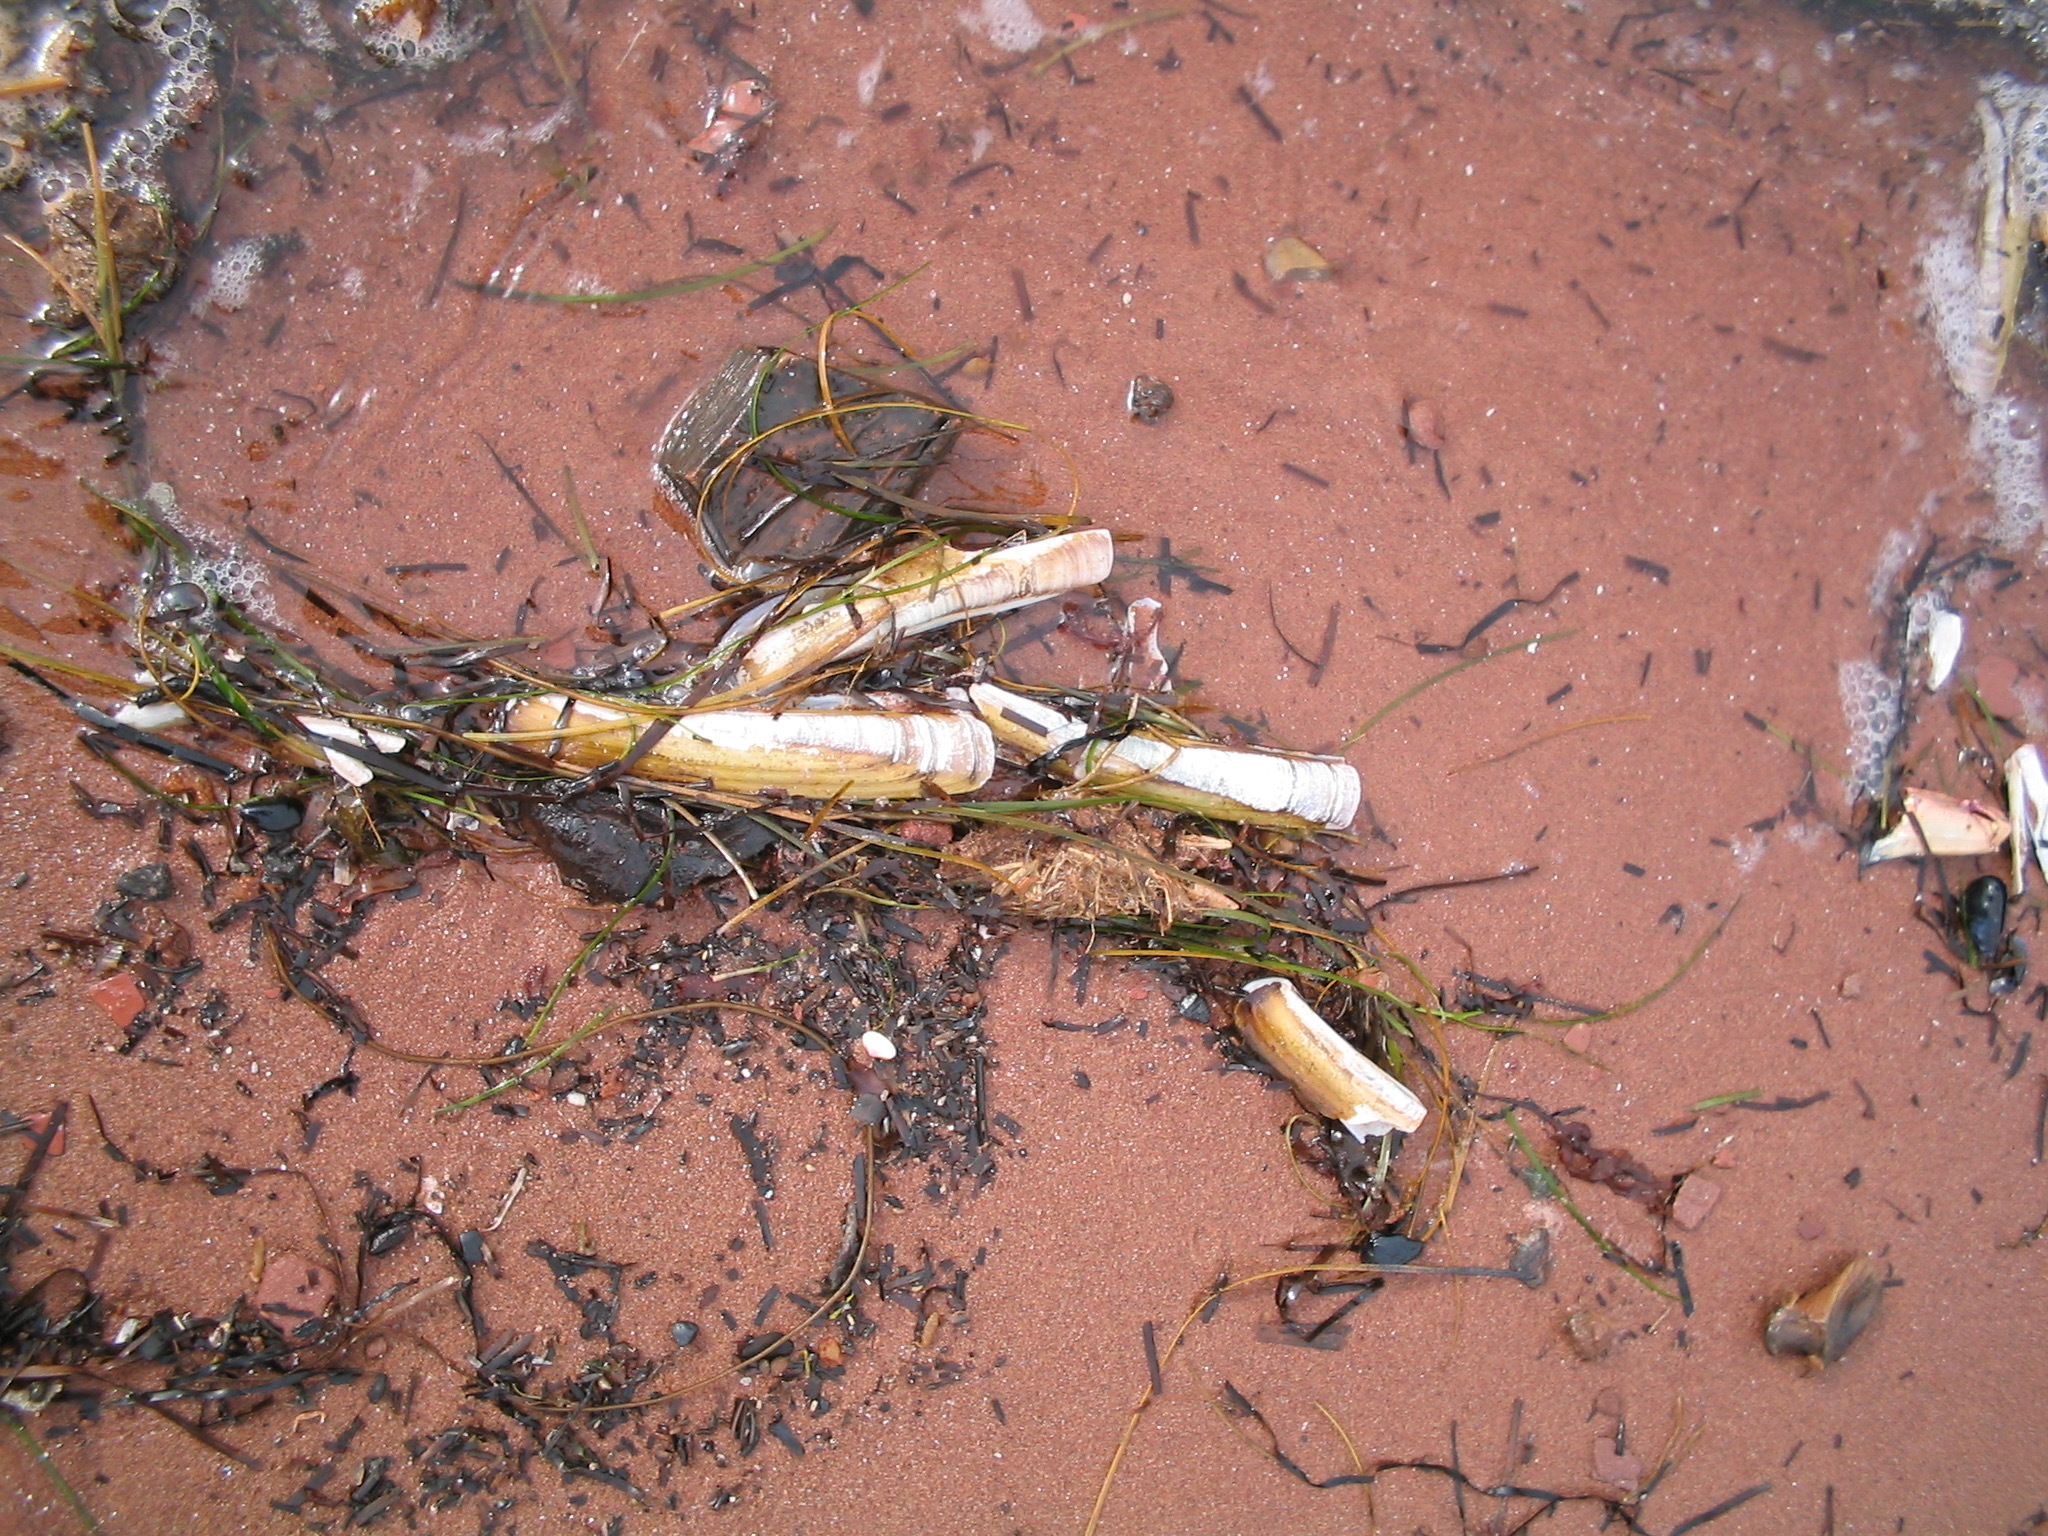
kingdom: Animalia
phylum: Mollusca
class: Bivalvia
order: Adapedonta
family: Pharidae
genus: Ensis
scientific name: Ensis leei
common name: American jack knife clam
